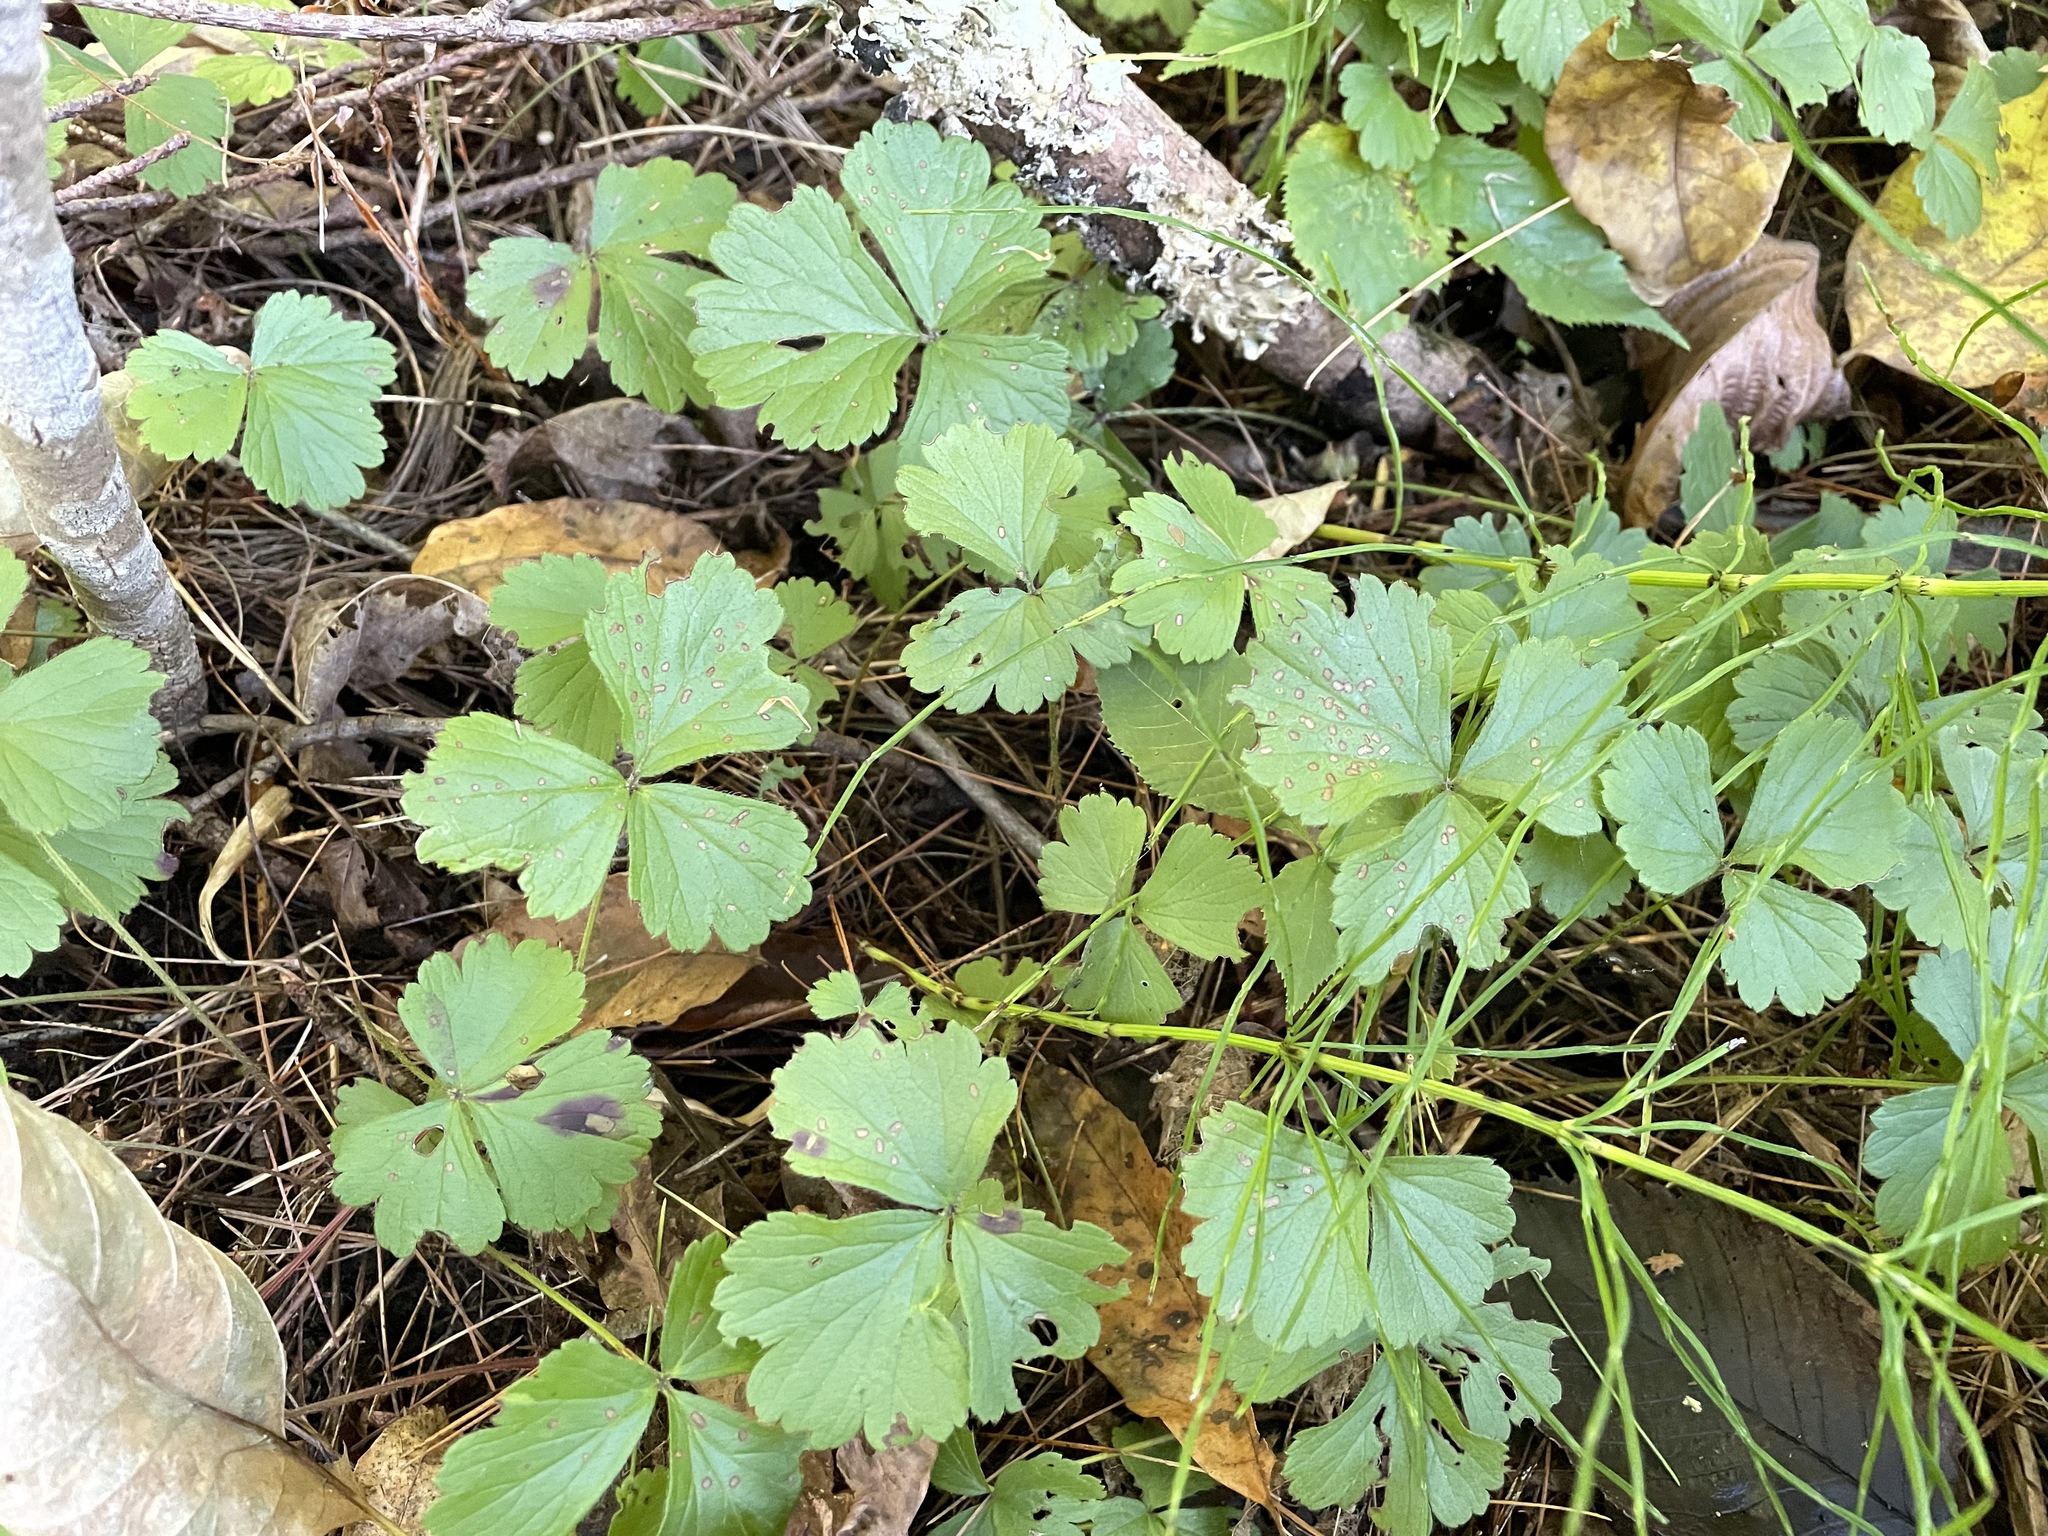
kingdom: Plantae
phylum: Tracheophyta
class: Magnoliopsida
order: Rosales
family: Rosaceae
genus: Geum
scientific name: Geum fragarioides
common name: Appalachian barren strawberry
